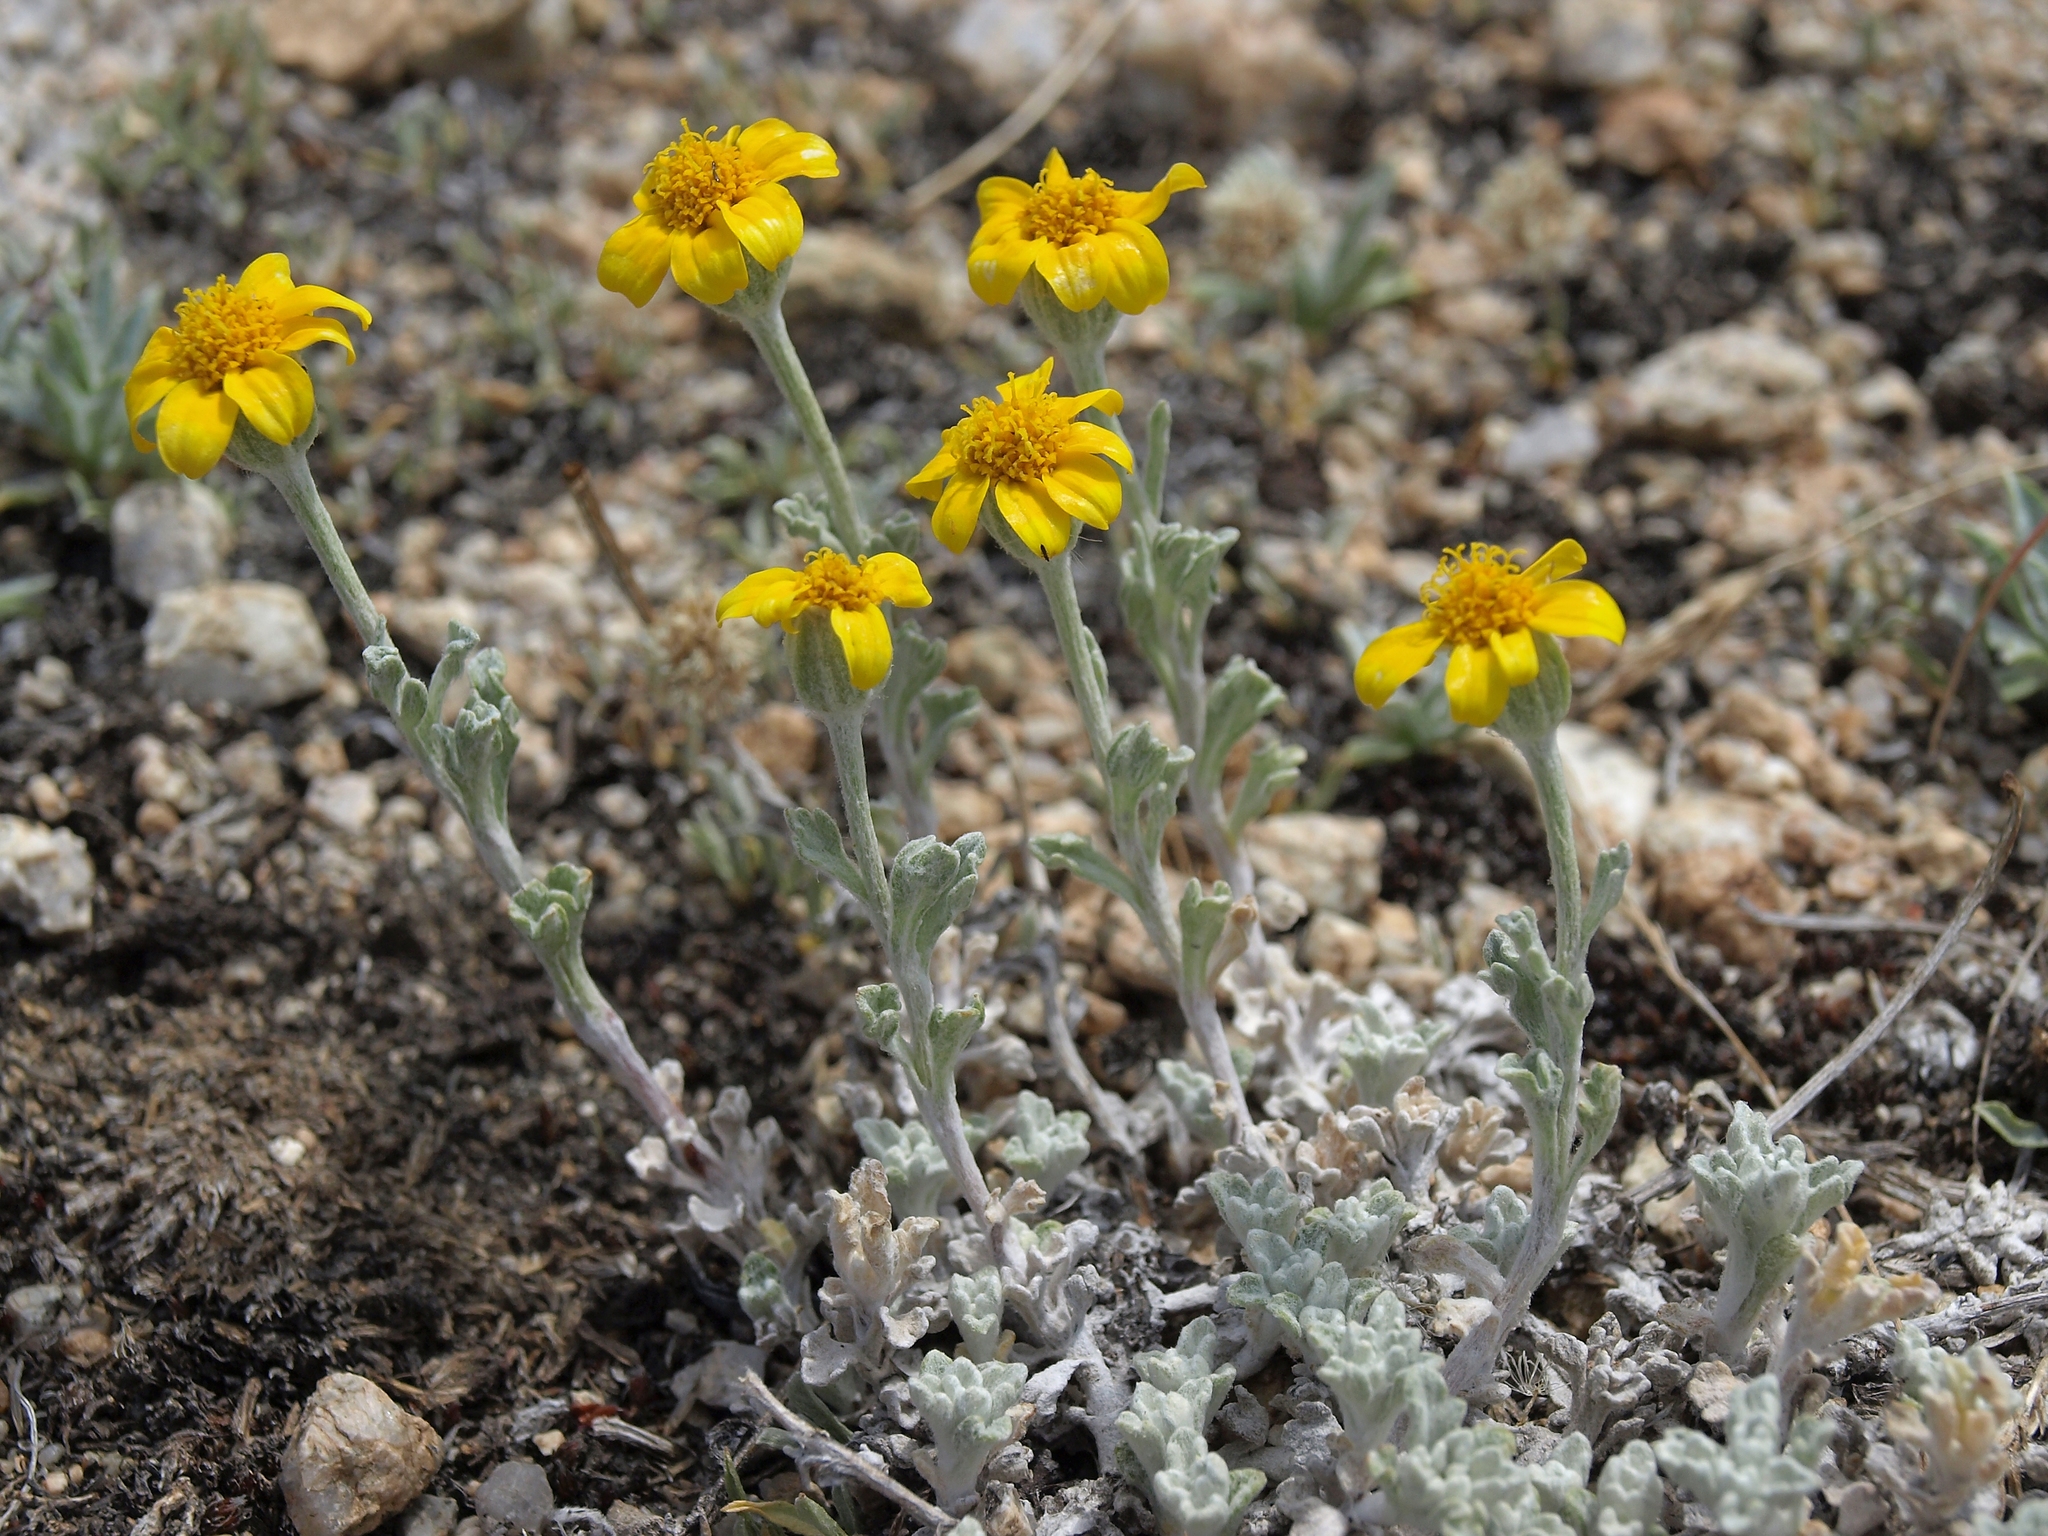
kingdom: Plantae
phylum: Tracheophyta
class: Magnoliopsida
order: Asterales
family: Asteraceae
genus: Eriophyllum
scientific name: Eriophyllum lanatum
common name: Common woolly-sunflower
